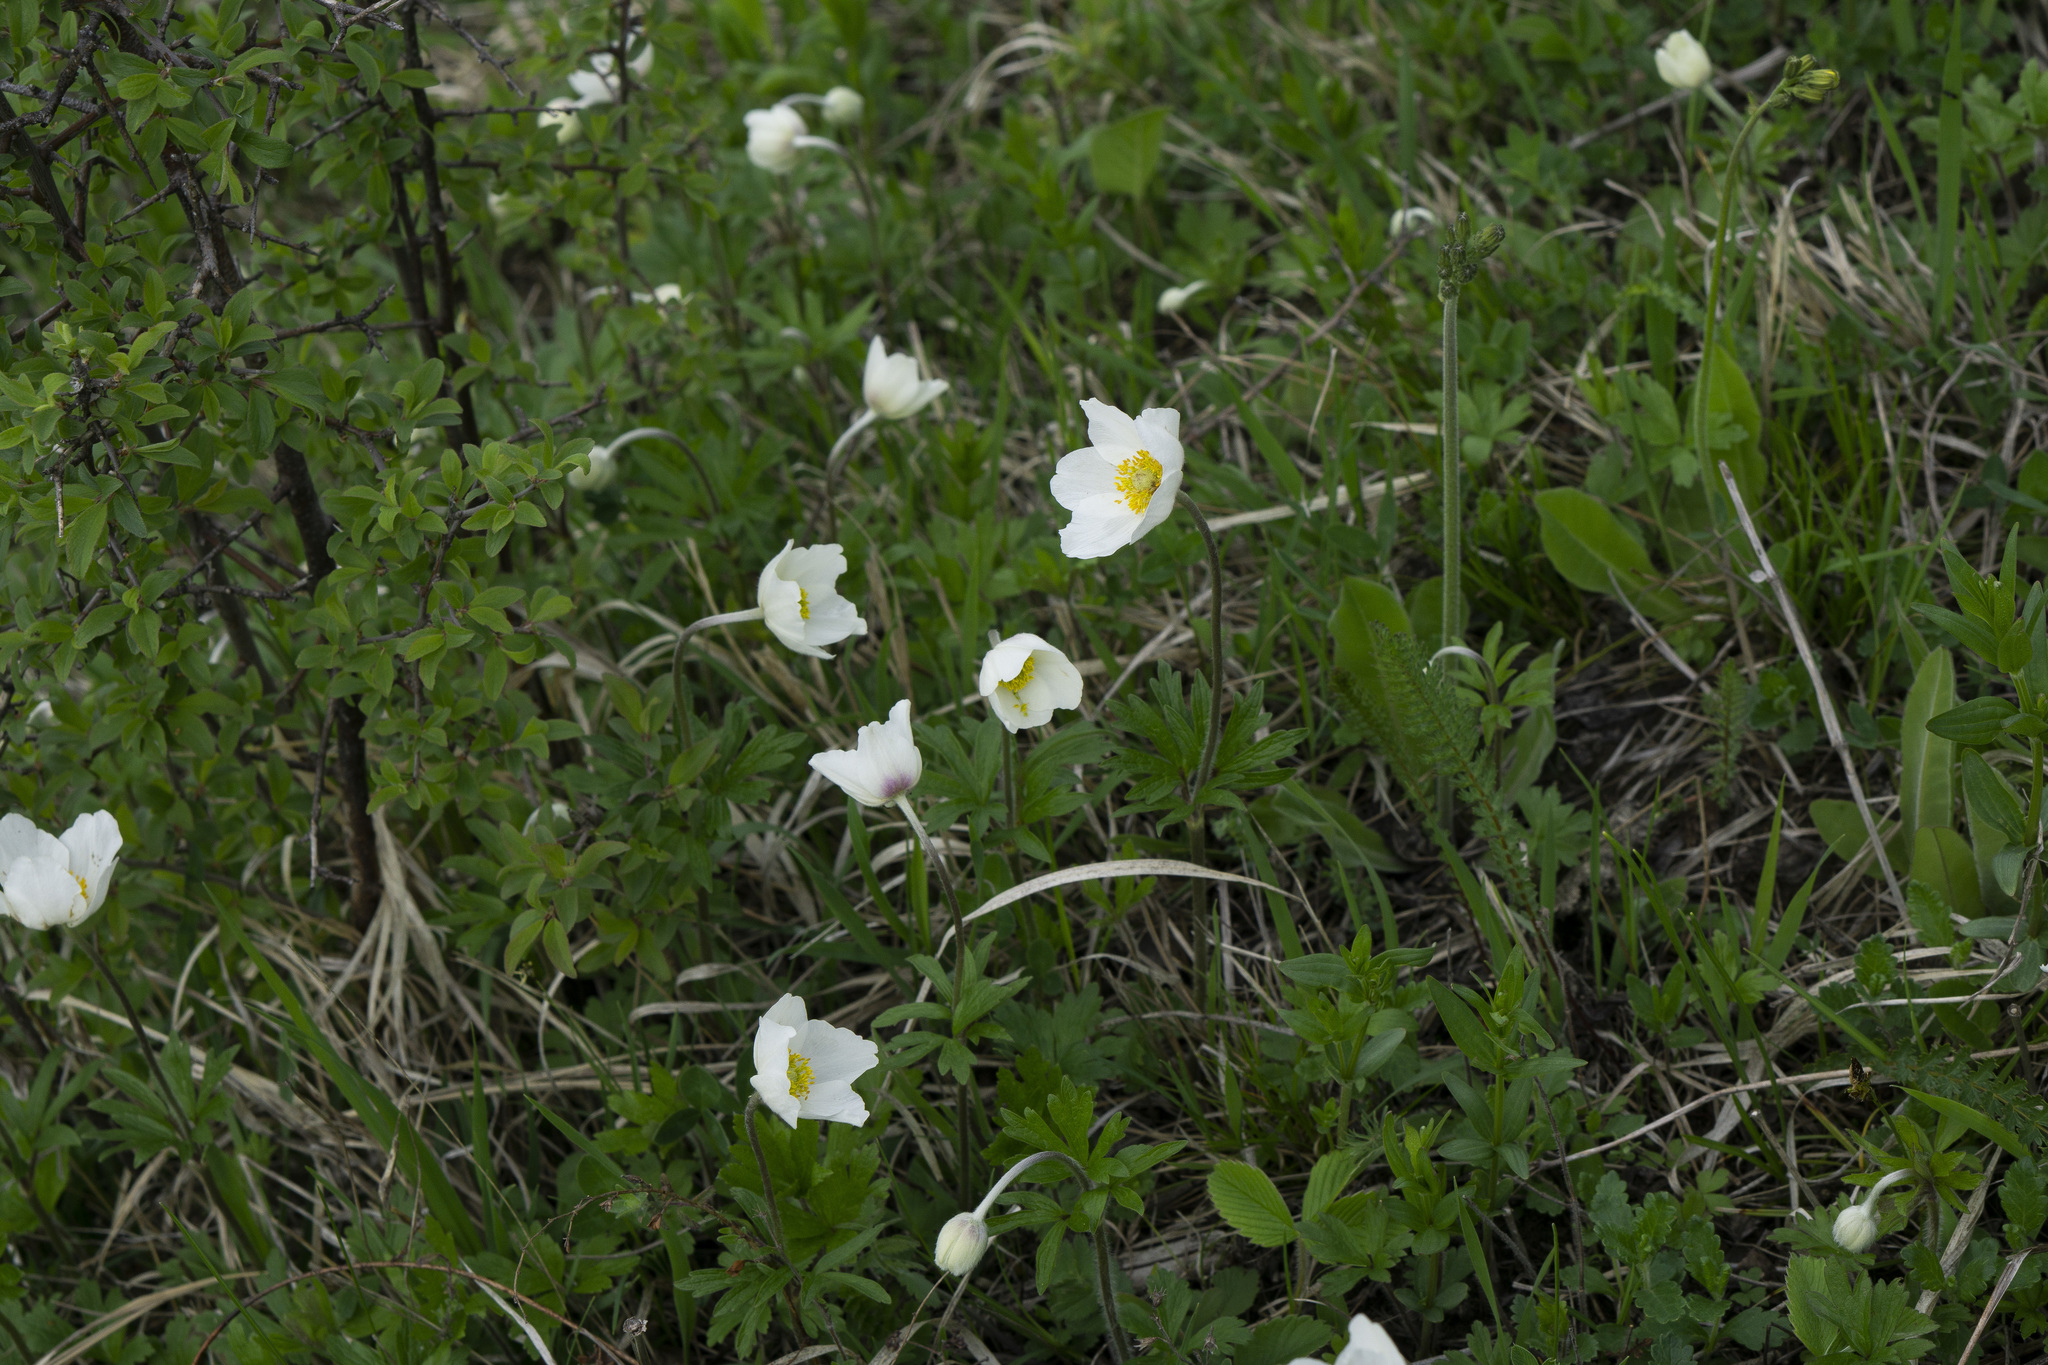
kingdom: Plantae
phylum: Tracheophyta
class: Magnoliopsida
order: Ranunculales
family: Ranunculaceae
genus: Anemone
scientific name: Anemone sylvestris
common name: Snowdrop anemone
